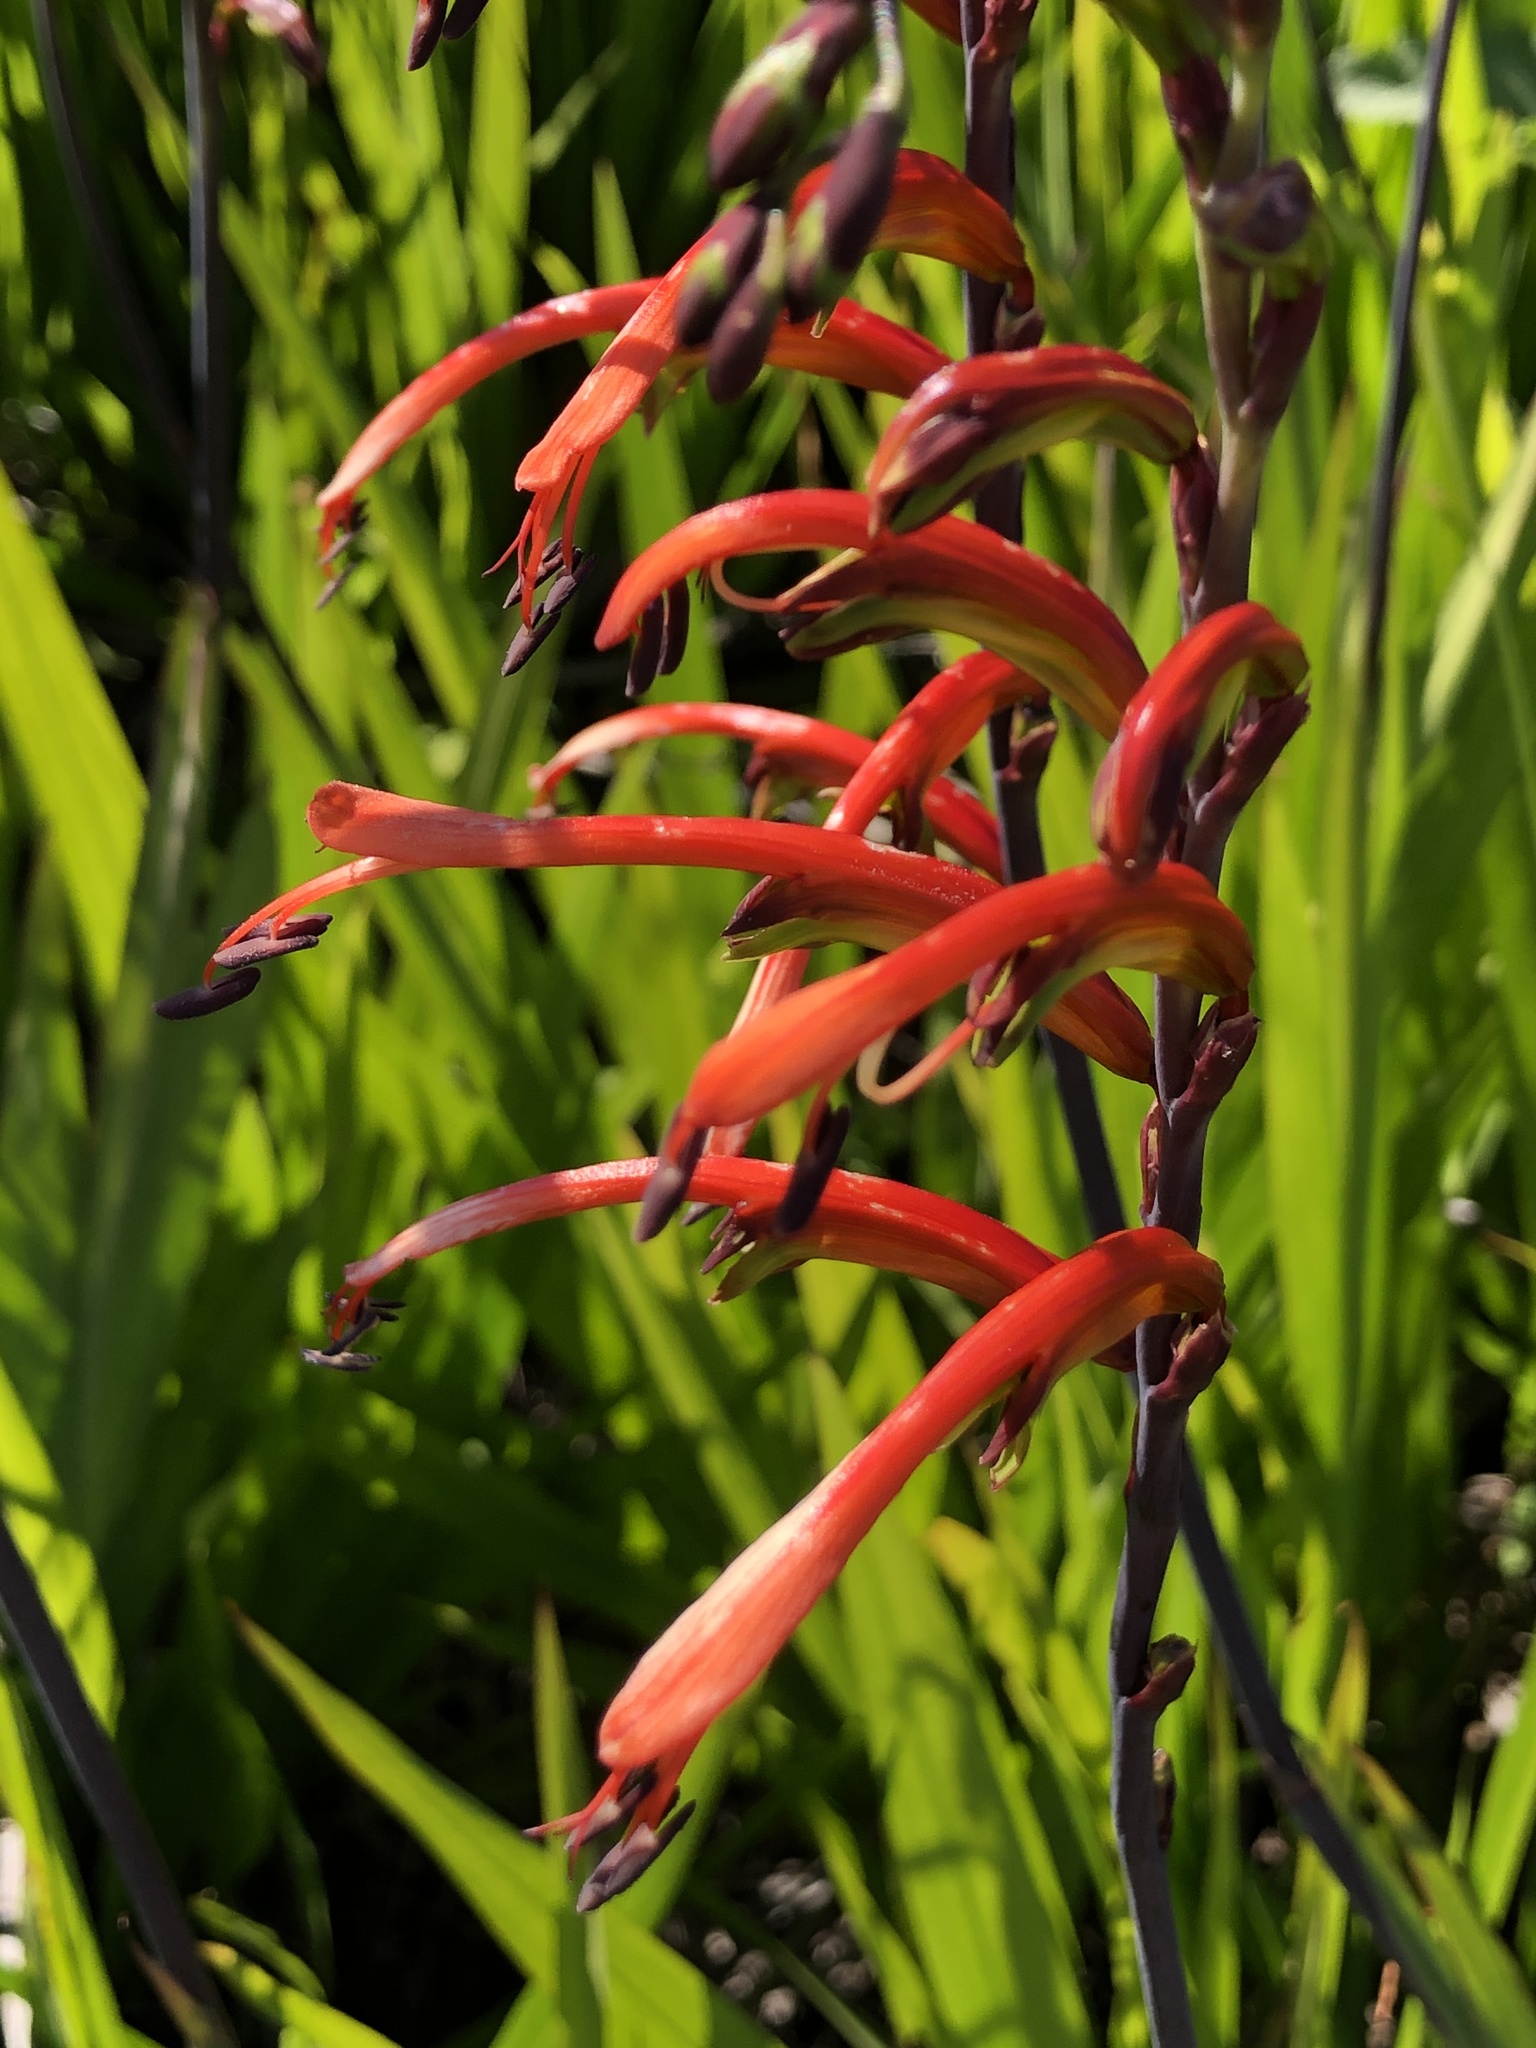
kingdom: Plantae
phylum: Tracheophyta
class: Liliopsida
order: Asparagales
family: Iridaceae
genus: Chasmanthe
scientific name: Chasmanthe bicolor
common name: Bicolor cobra lily
